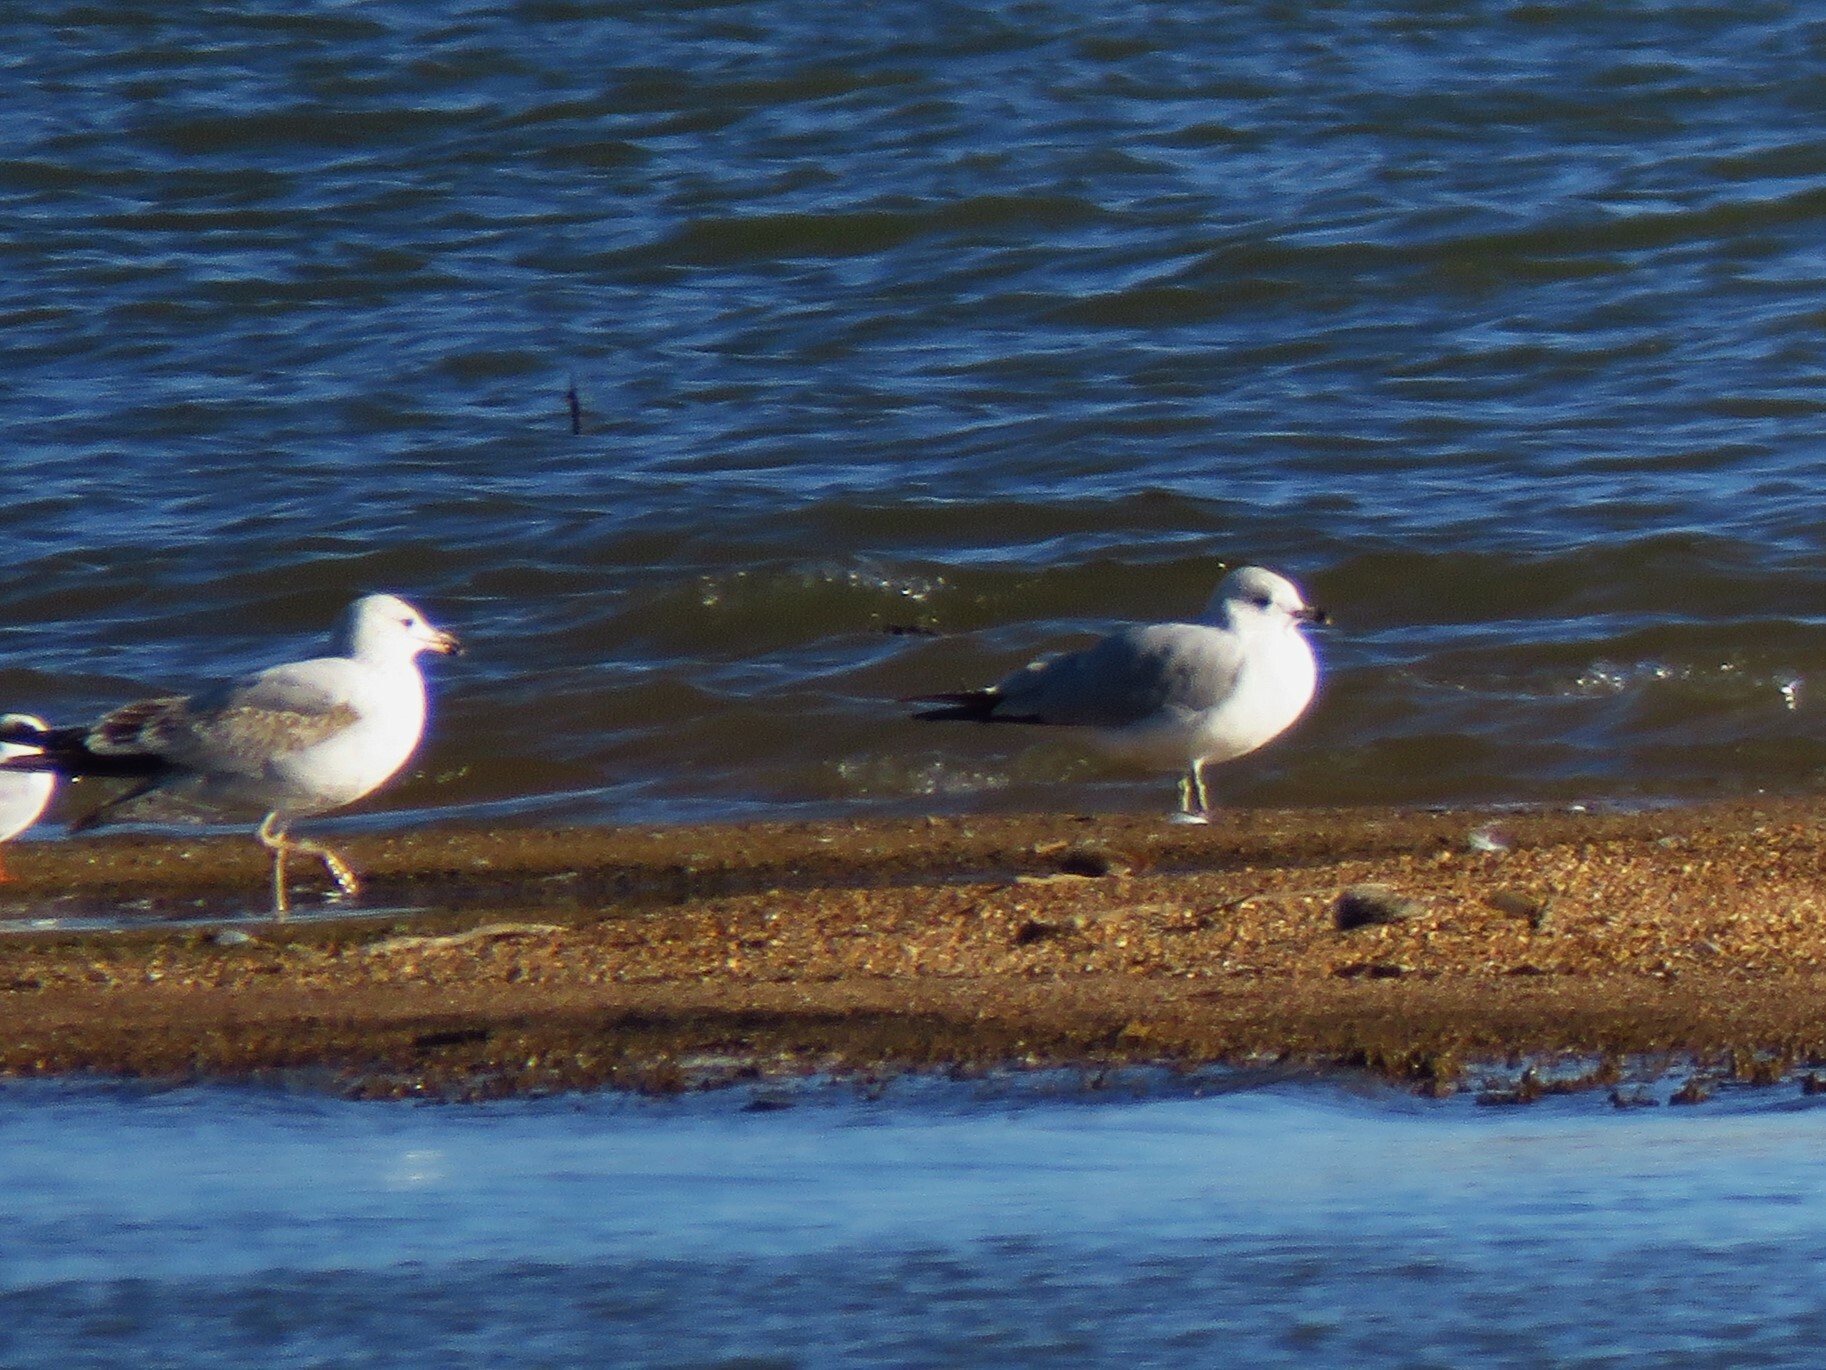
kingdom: Animalia
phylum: Chordata
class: Aves
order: Charadriiformes
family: Laridae
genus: Larus
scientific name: Larus delawarensis
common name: Ring-billed gull
